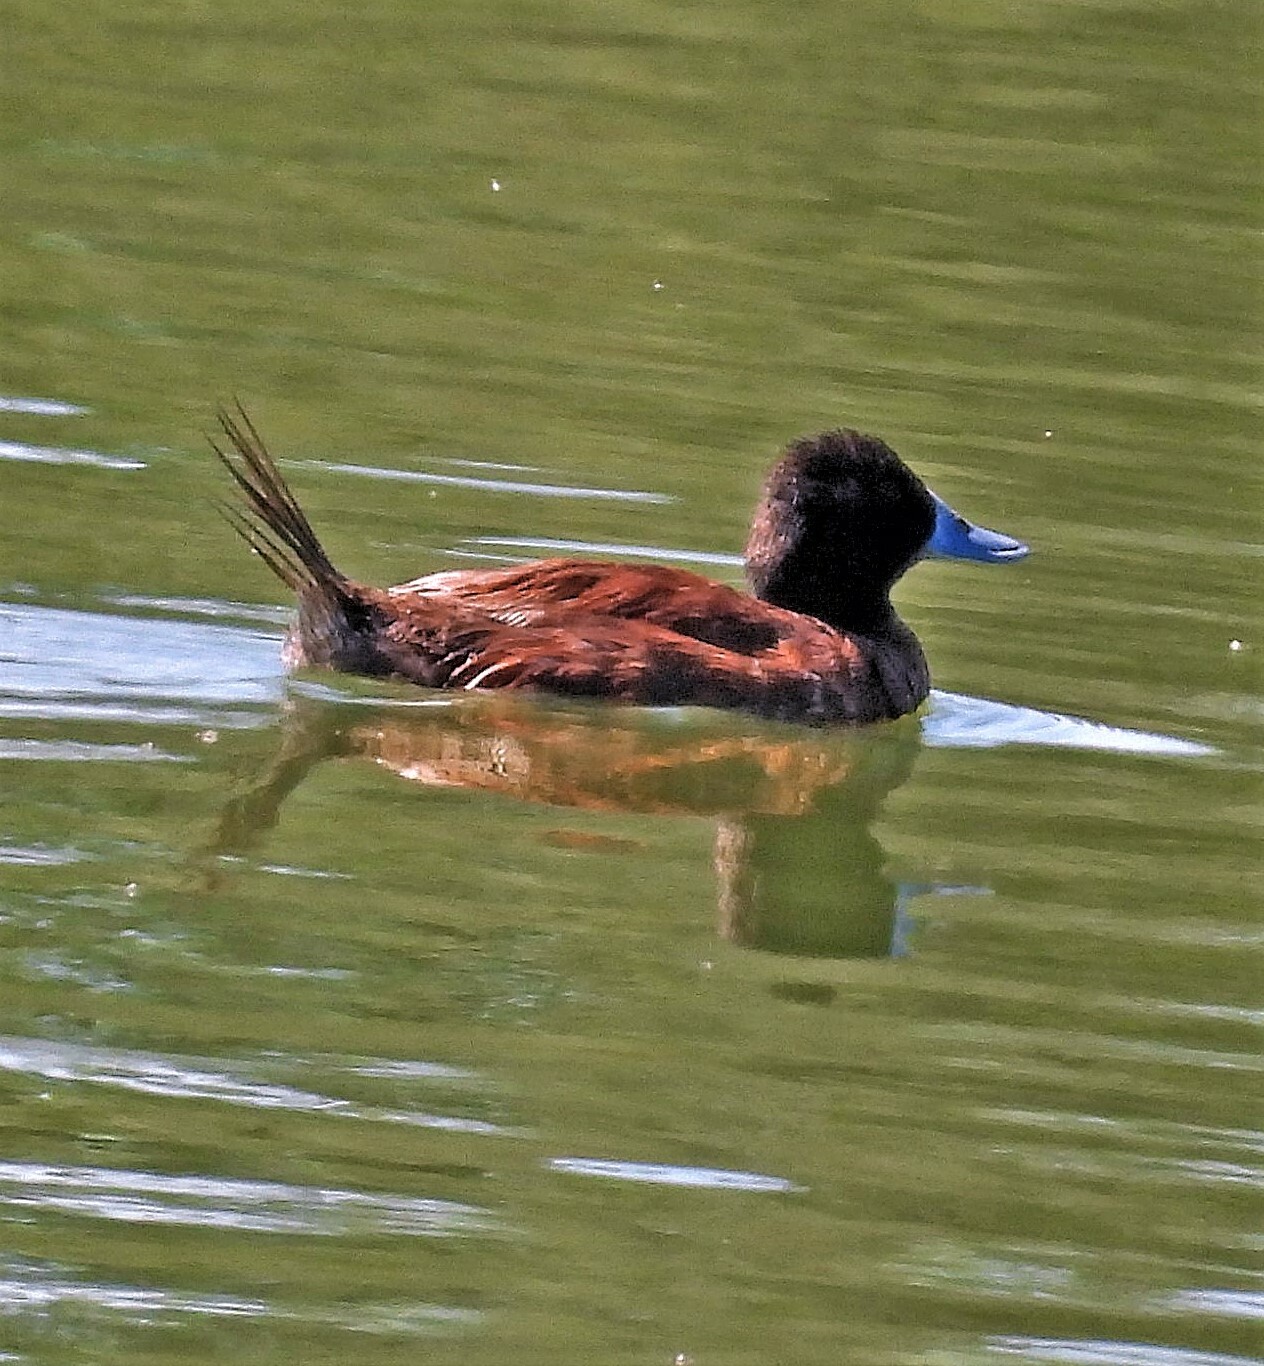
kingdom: Animalia
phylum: Chordata
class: Aves
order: Anseriformes
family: Anatidae
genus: Oxyura
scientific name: Oxyura vittata
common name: Lake duck
